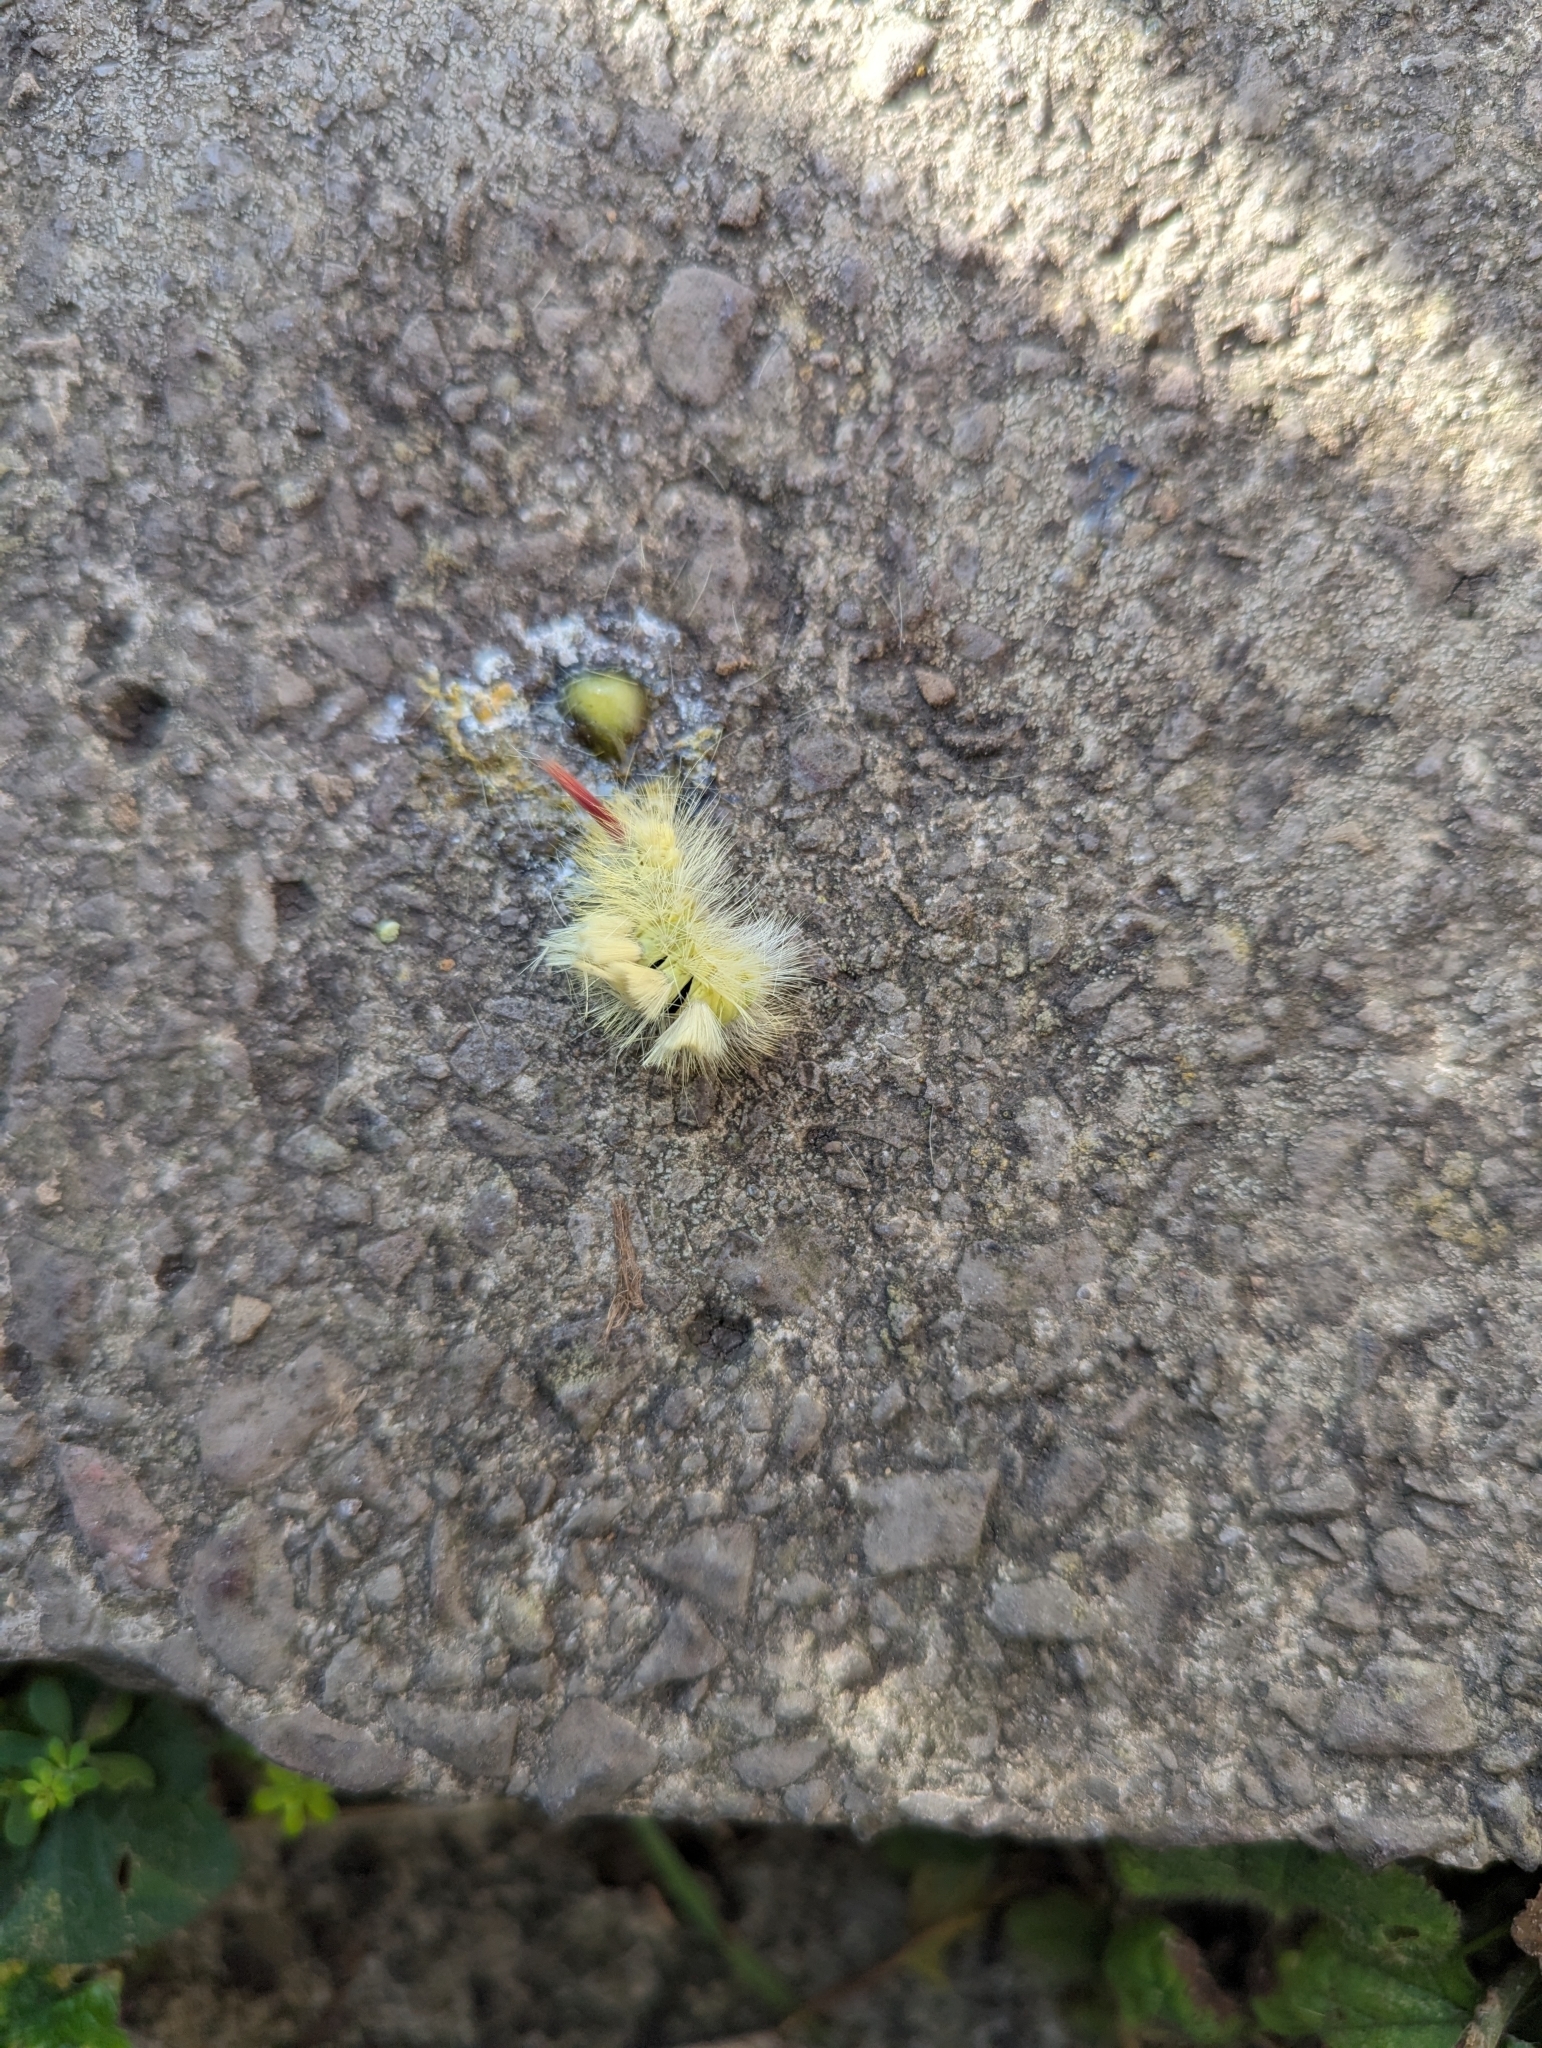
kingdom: Animalia
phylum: Arthropoda
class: Insecta
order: Lepidoptera
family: Erebidae
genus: Calliteara
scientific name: Calliteara pudibunda
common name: Pale tussock
